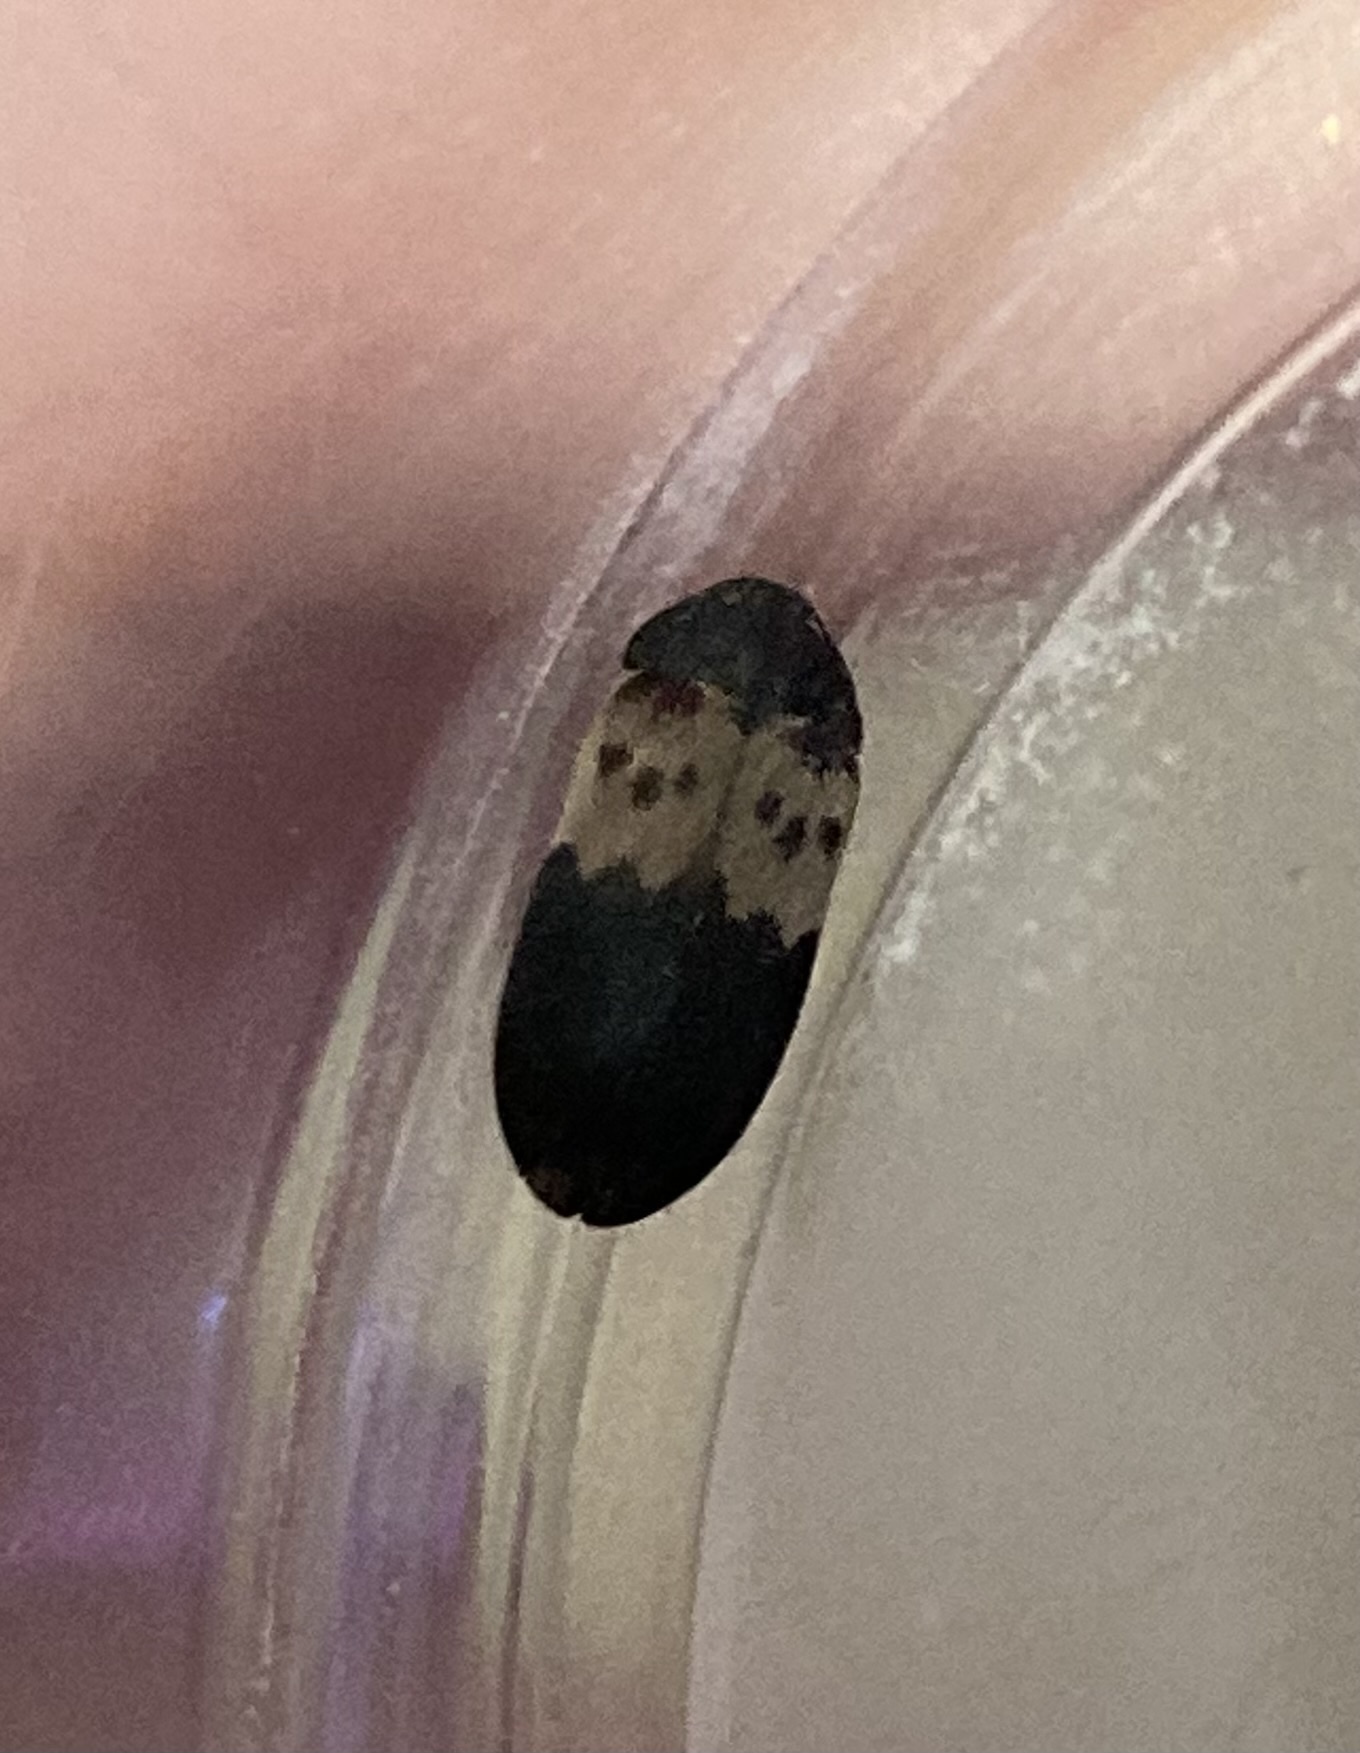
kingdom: Animalia
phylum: Arthropoda
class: Insecta
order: Coleoptera
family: Dermestidae
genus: Dermestes
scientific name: Dermestes lardarius
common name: Larder beetle
